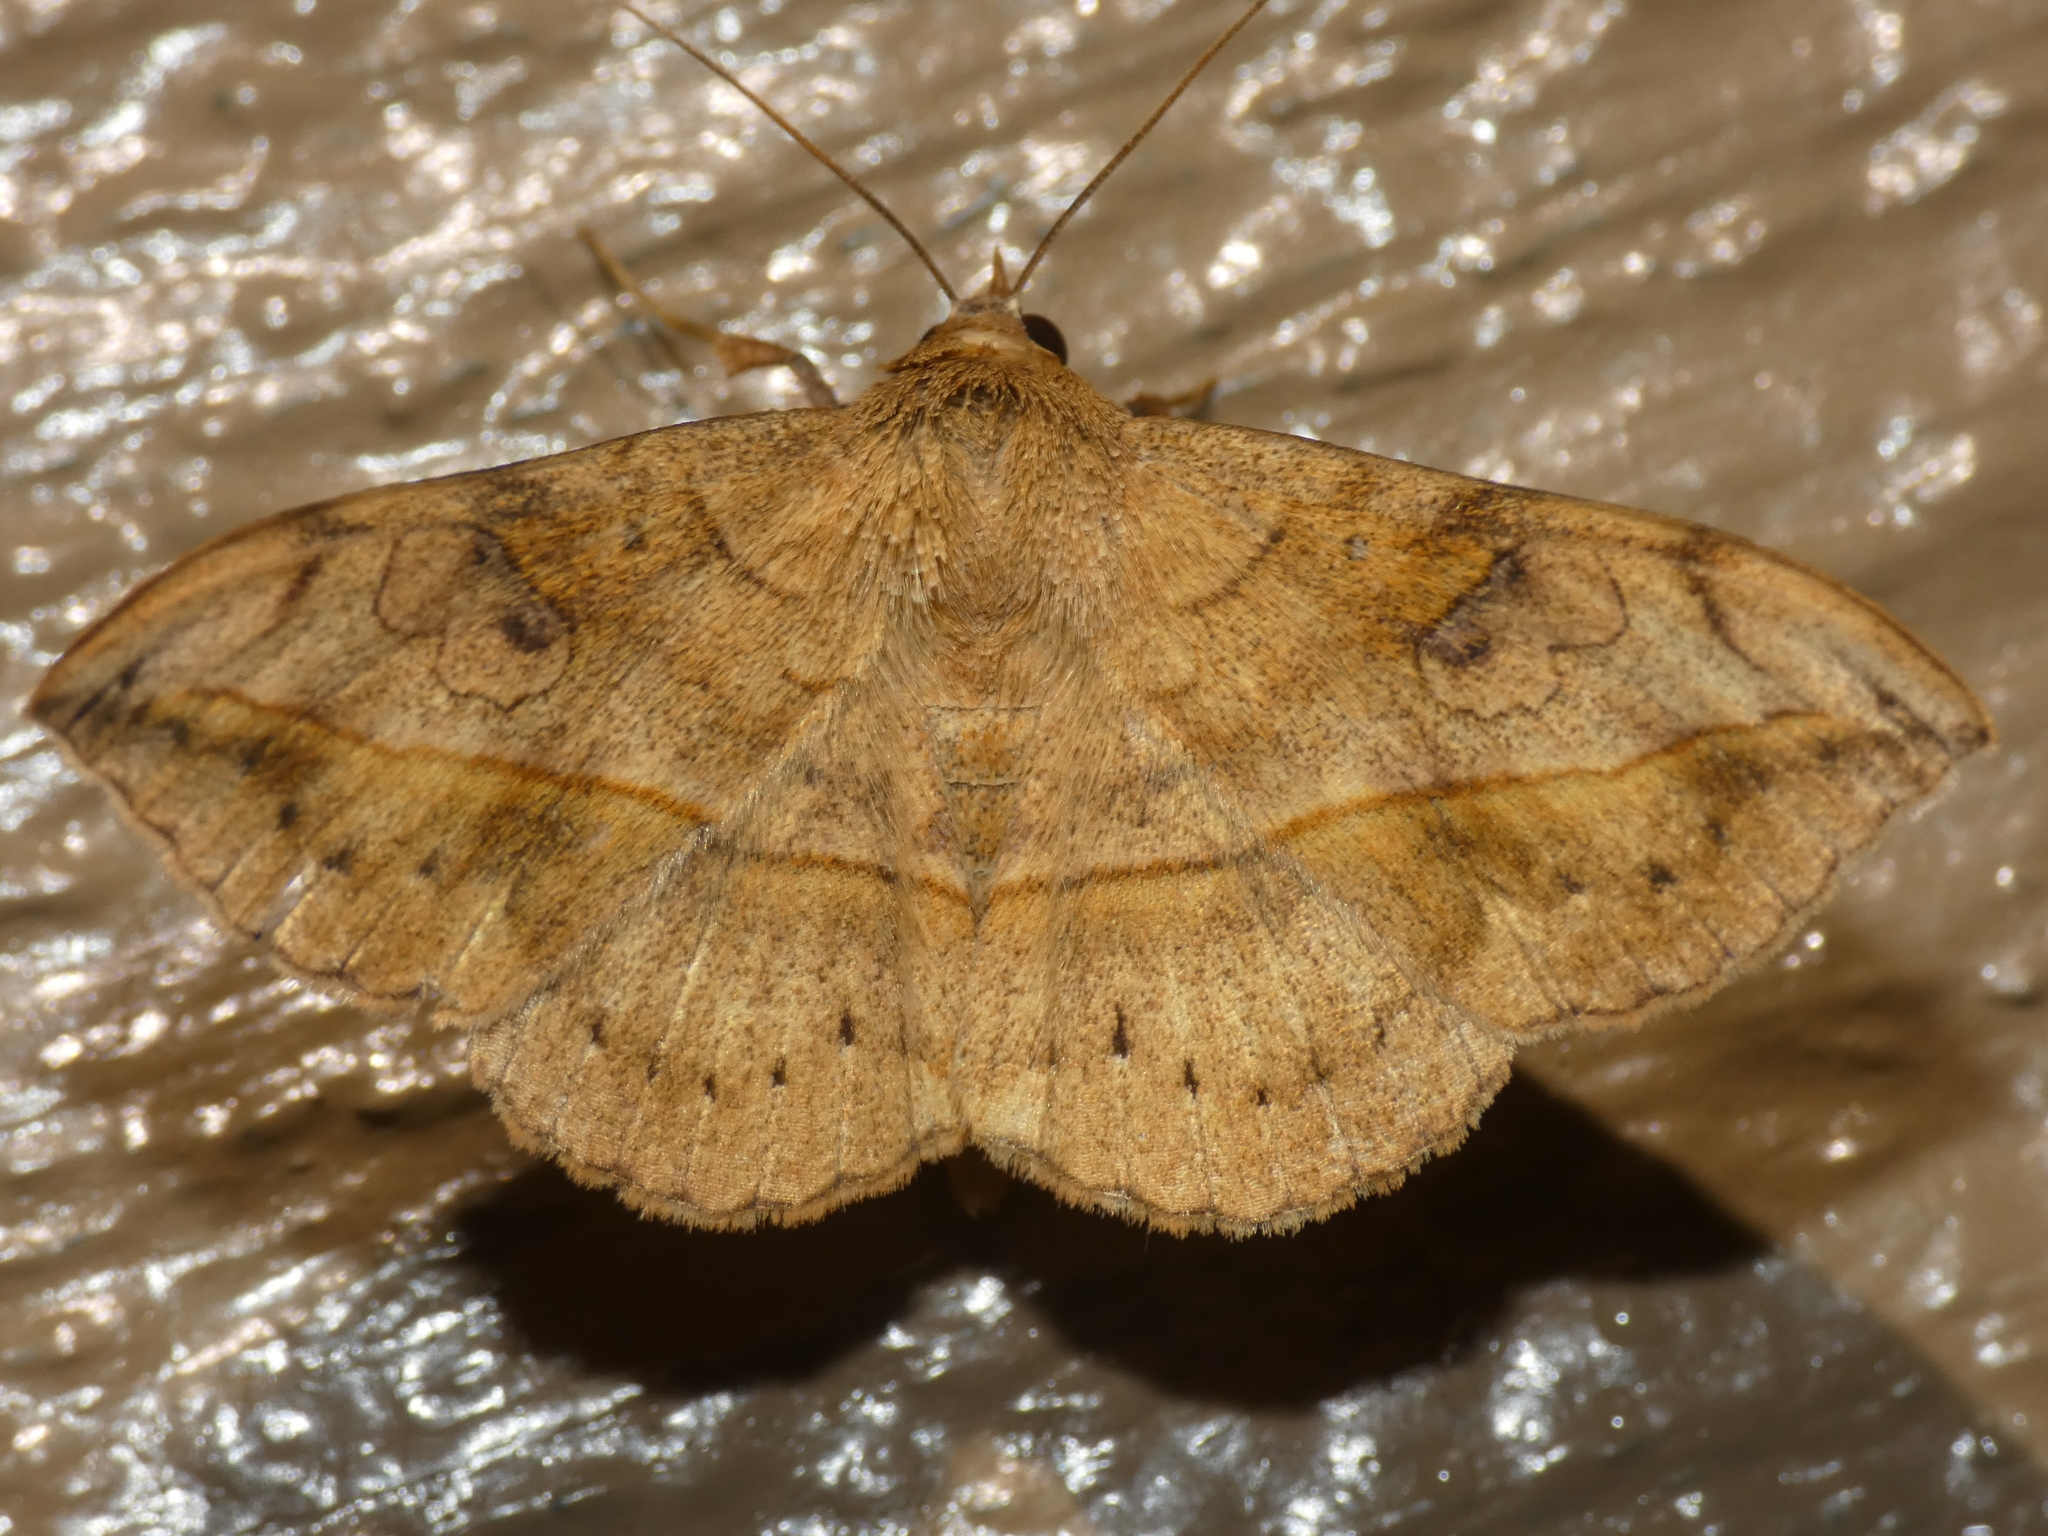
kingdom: Animalia
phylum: Arthropoda
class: Insecta
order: Lepidoptera
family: Erebidae
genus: Anticarsia
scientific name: Anticarsia irrorata
